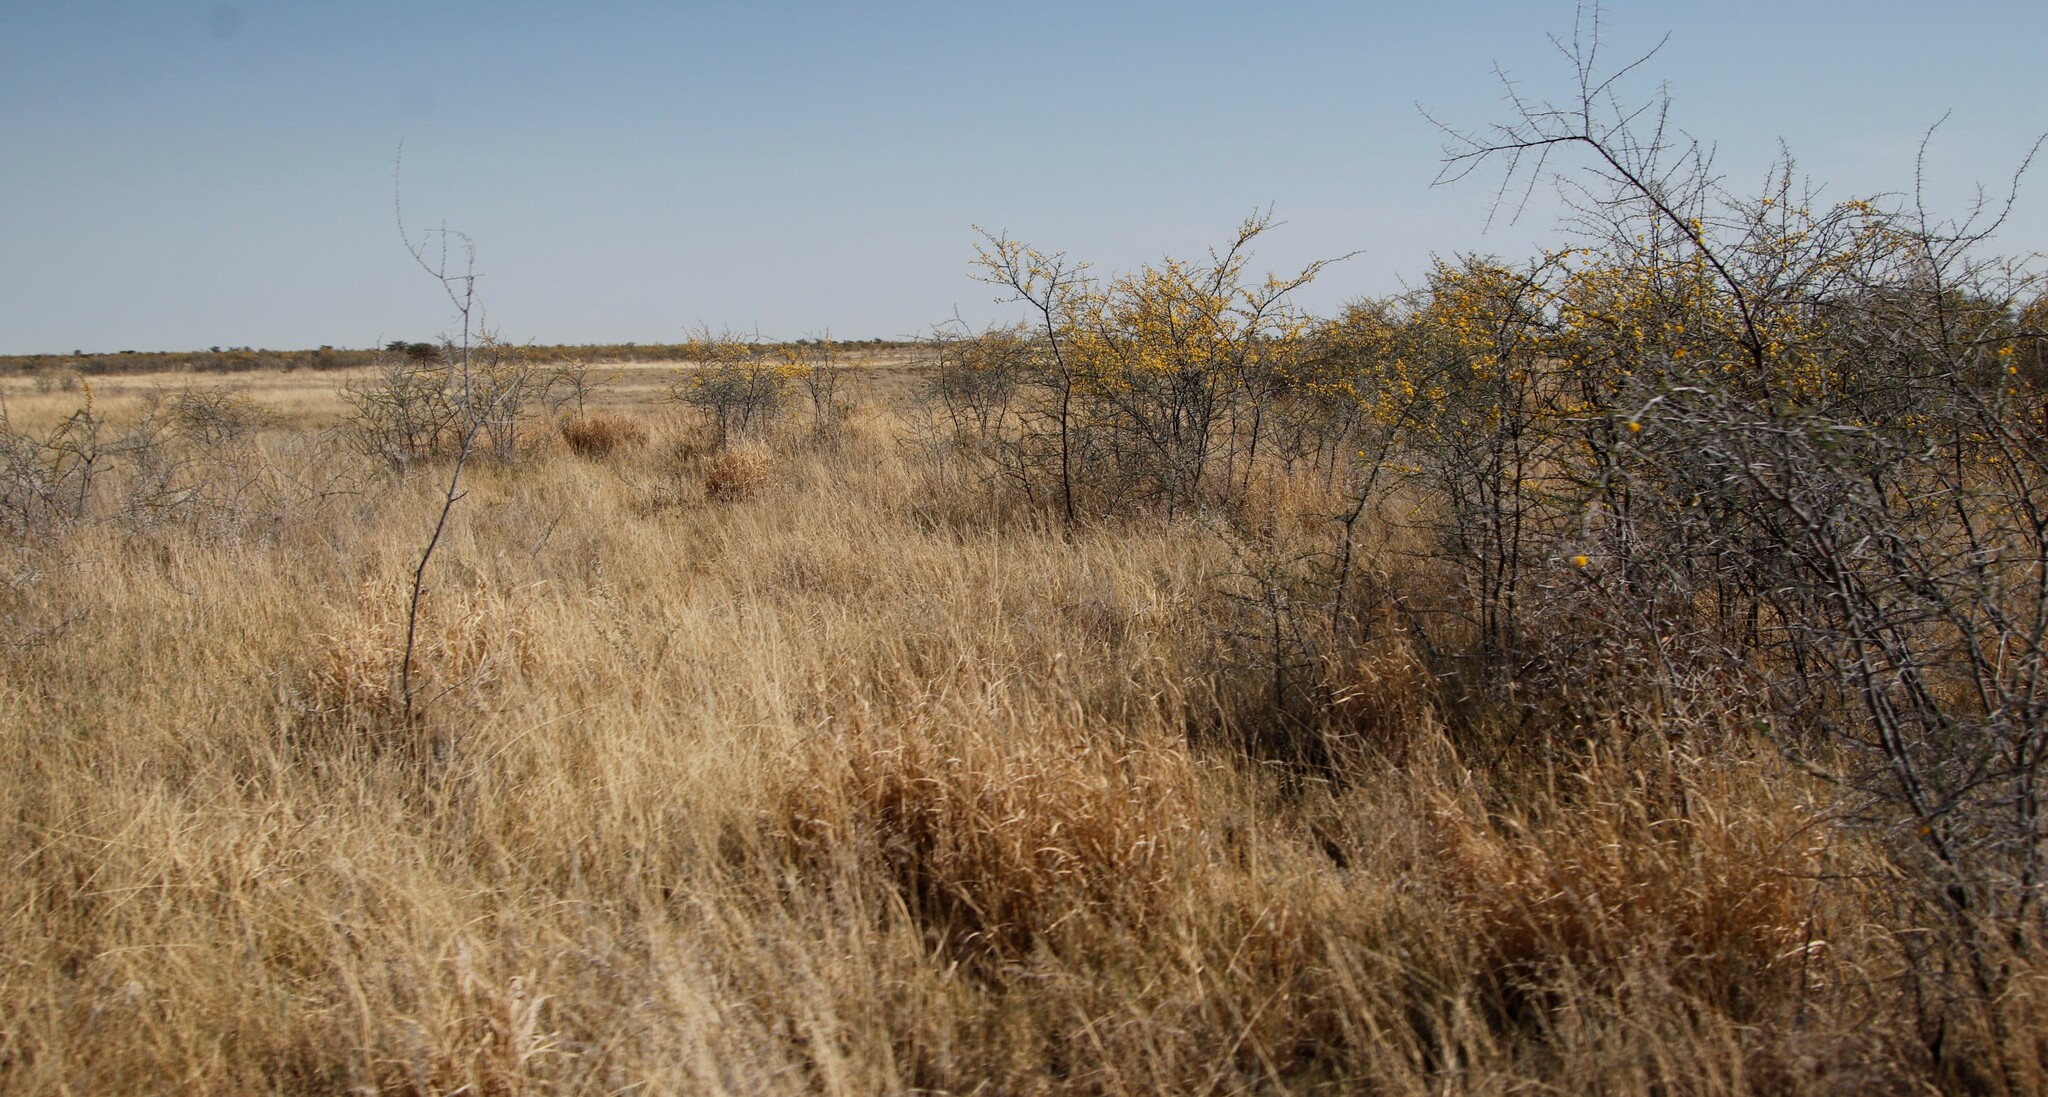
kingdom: Plantae
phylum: Tracheophyta
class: Magnoliopsida
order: Fabales
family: Fabaceae
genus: Vachellia
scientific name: Vachellia nebrownii
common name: Water acacia
